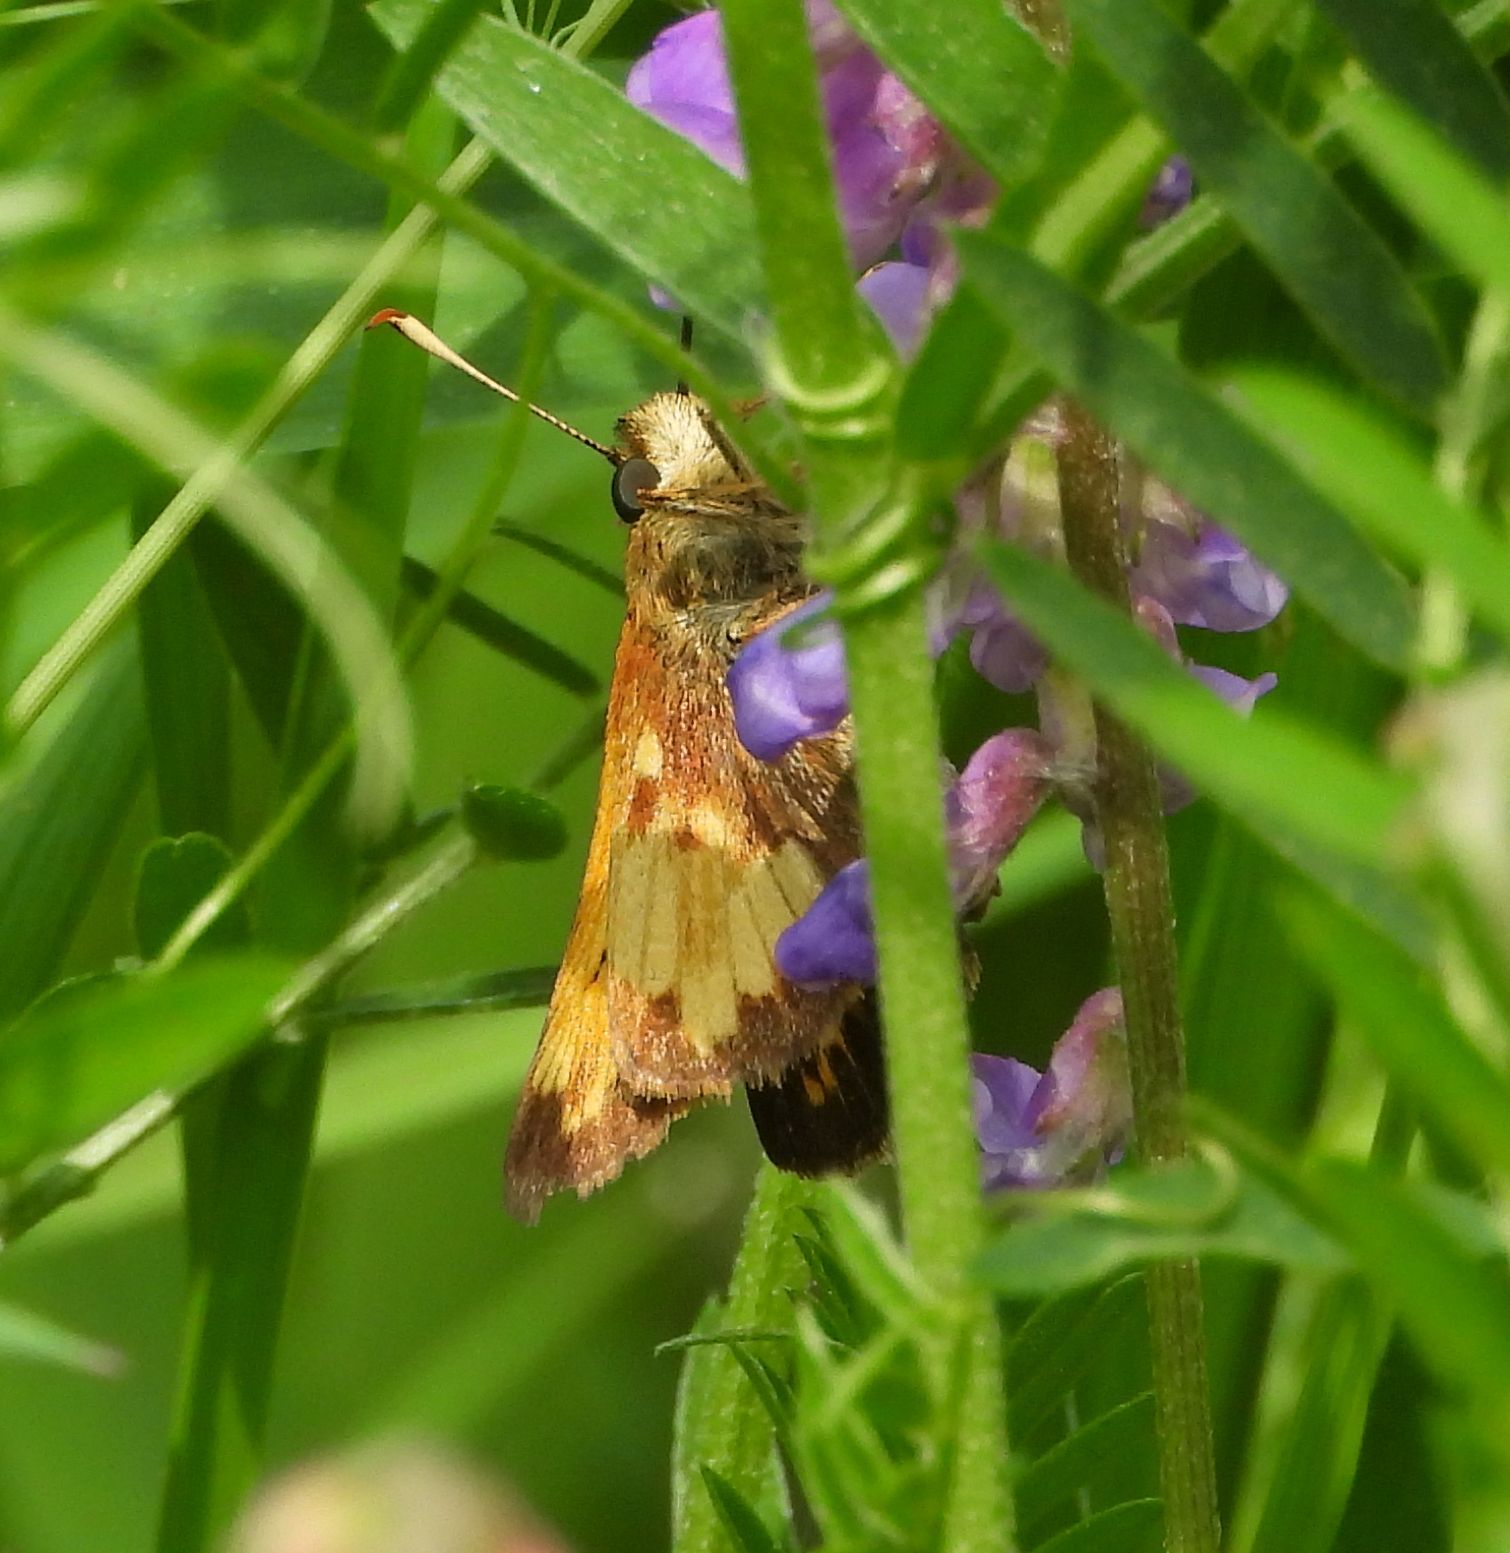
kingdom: Animalia
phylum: Arthropoda
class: Insecta
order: Lepidoptera
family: Hesperiidae
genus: Lon
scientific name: Lon hobomok
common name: Hobomok skipper
